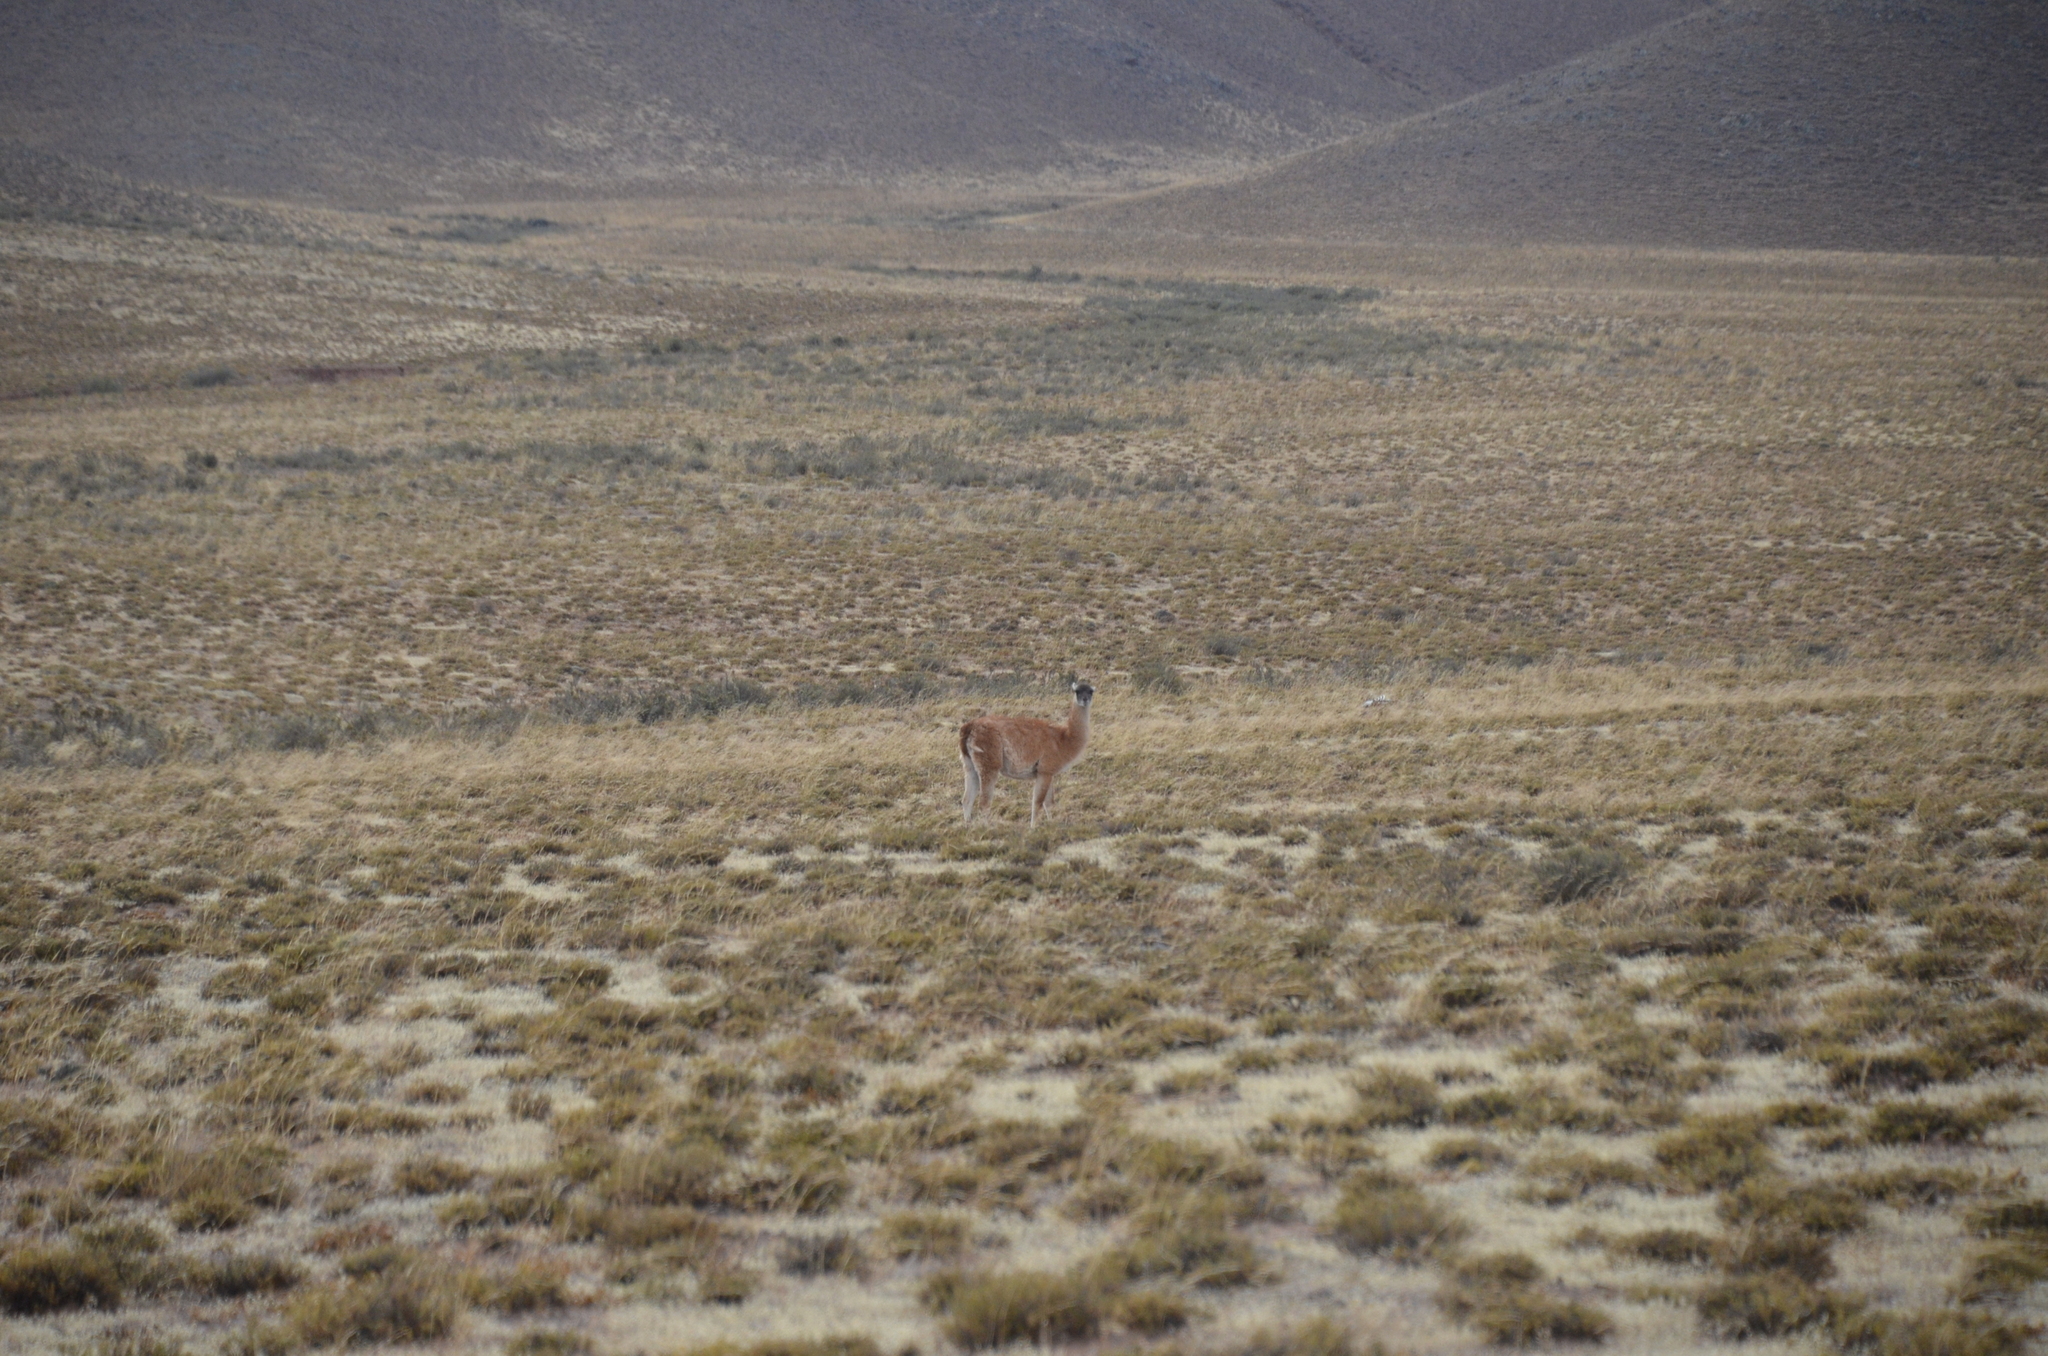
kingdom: Animalia
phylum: Chordata
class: Mammalia
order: Artiodactyla
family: Camelidae
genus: Lama
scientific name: Lama glama
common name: Llama
